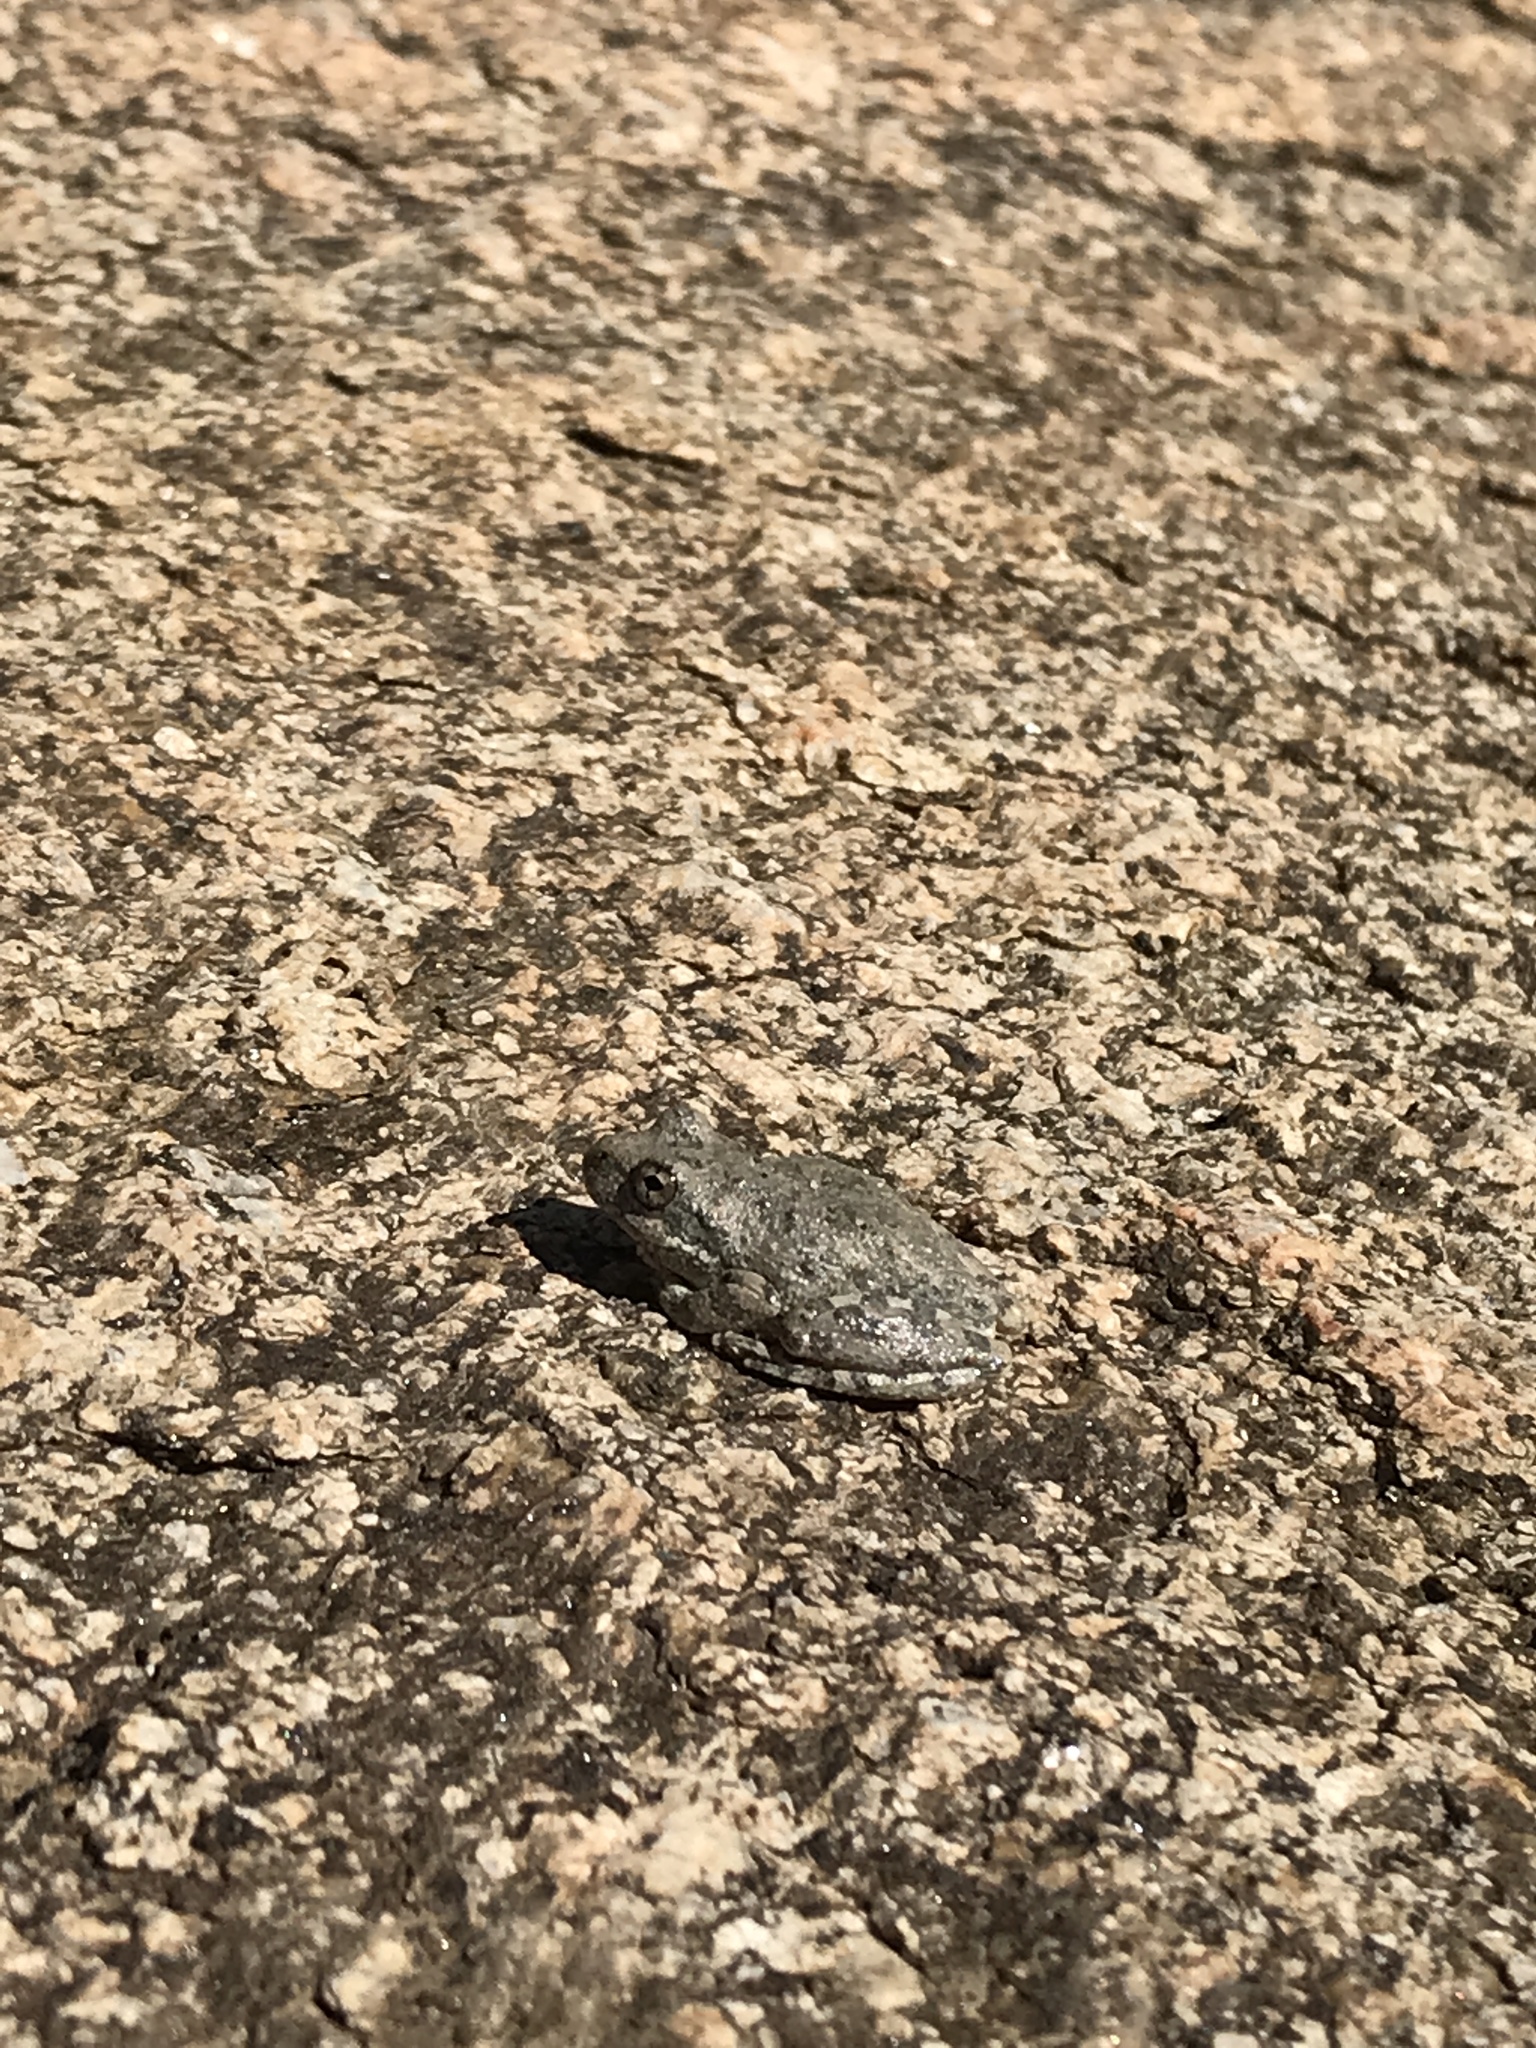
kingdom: Animalia
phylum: Chordata
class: Amphibia
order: Anura
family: Hylidae
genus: Pseudacris
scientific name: Pseudacris cadaverina
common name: California chorus frog
